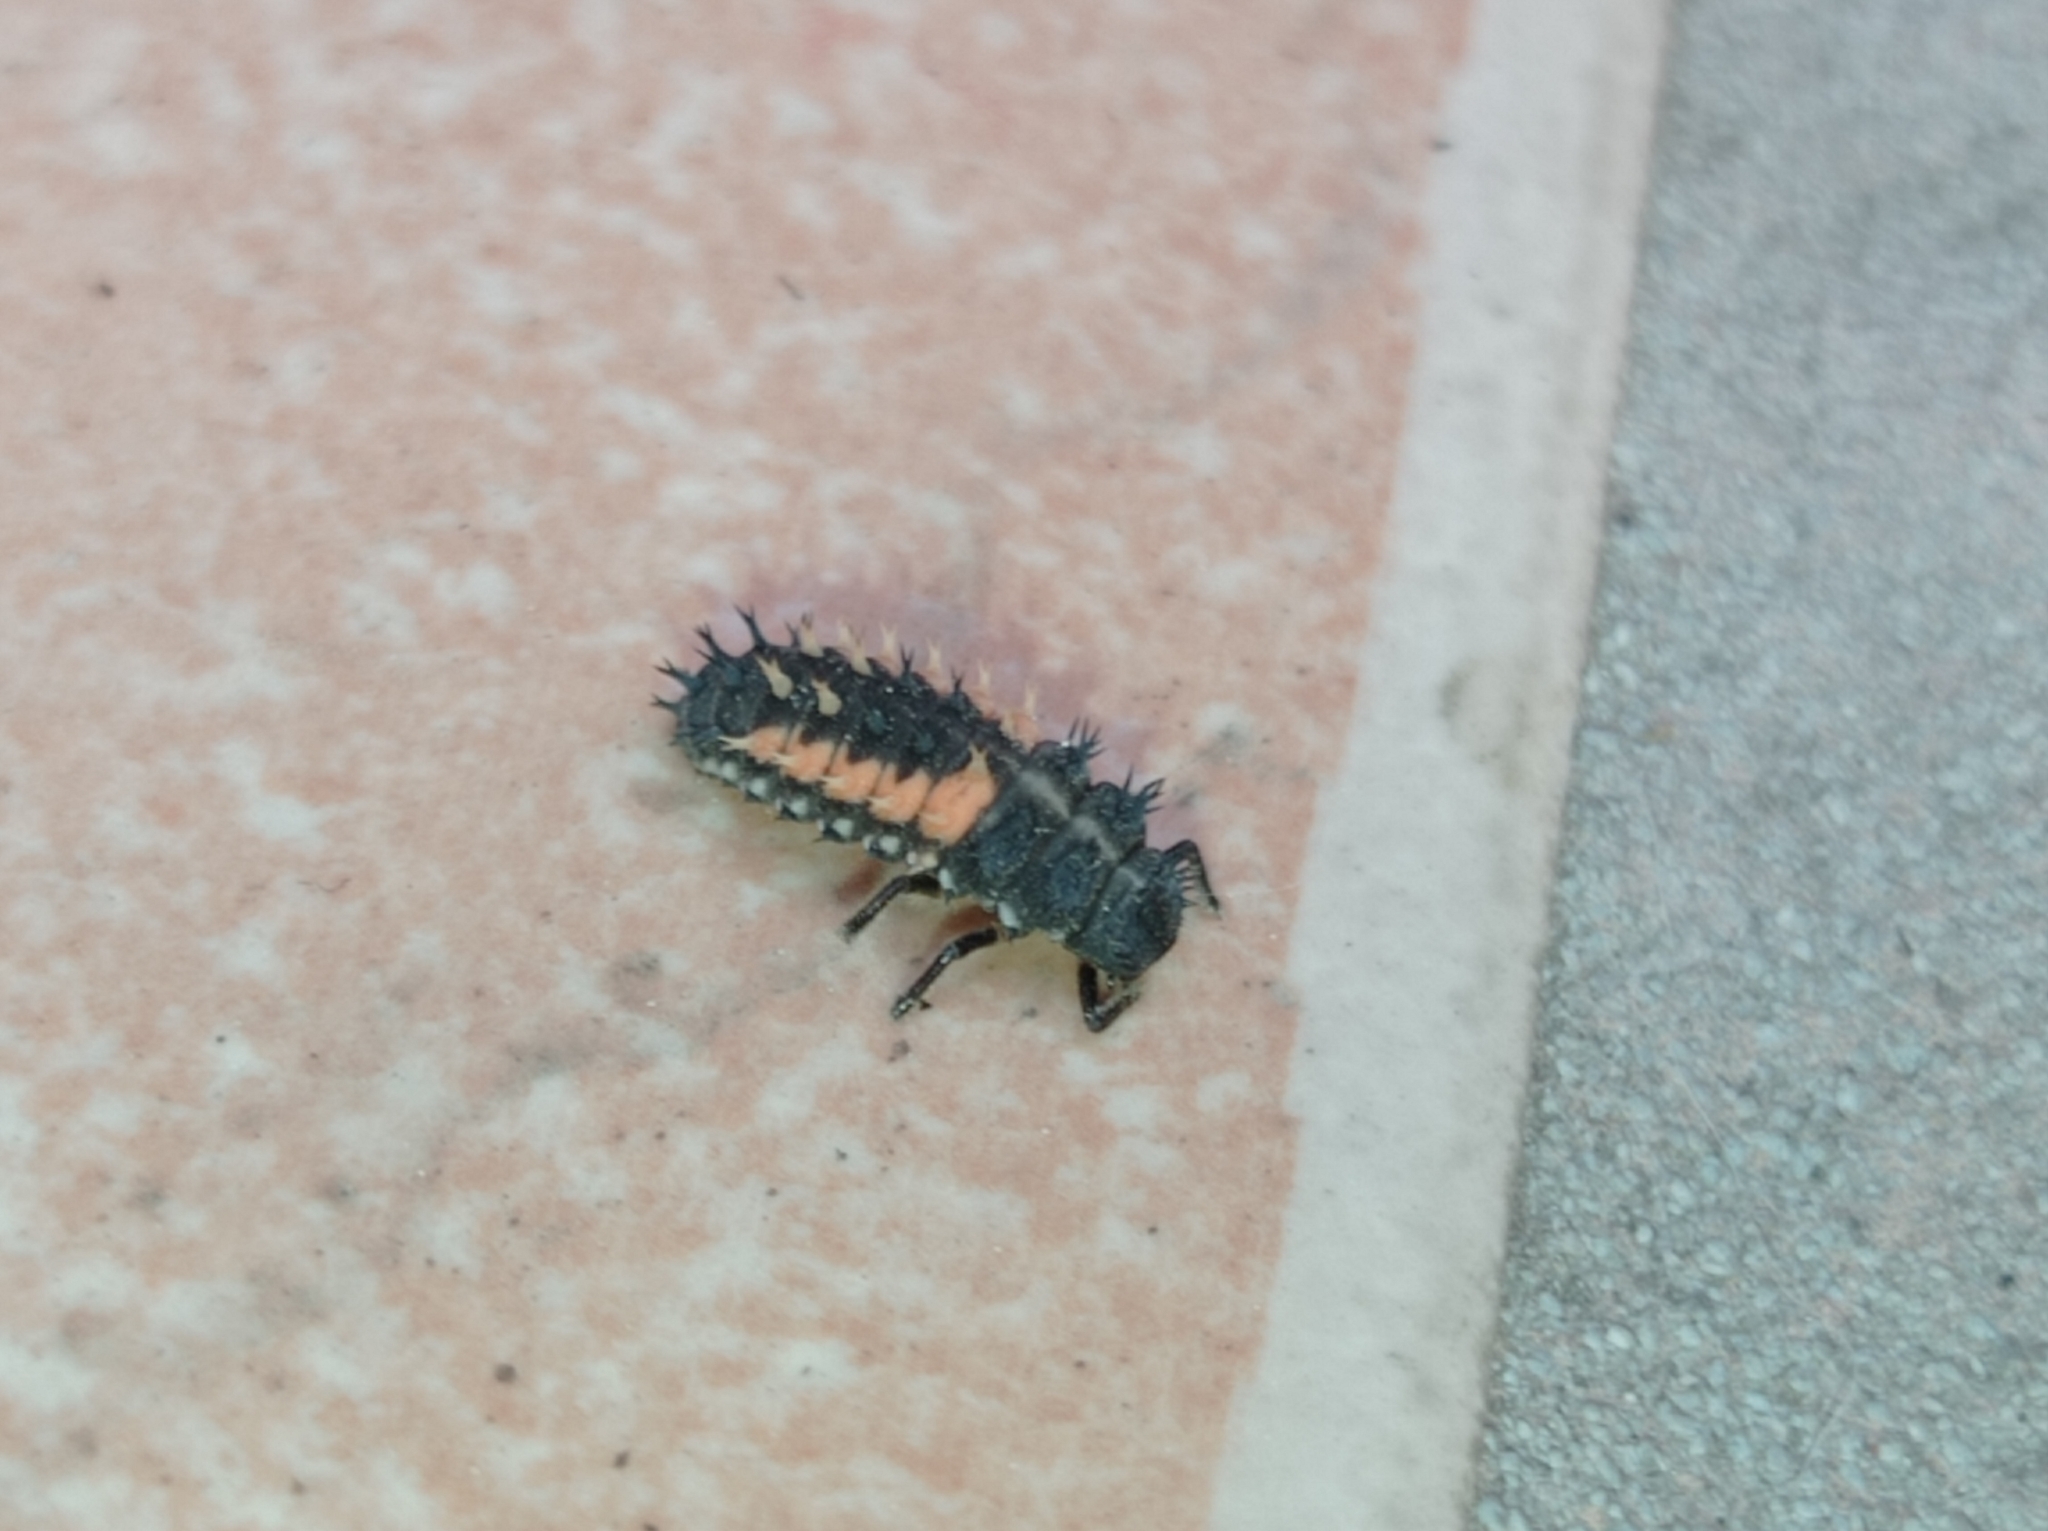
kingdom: Animalia
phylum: Arthropoda
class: Insecta
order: Coleoptera
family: Coccinellidae
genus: Harmonia
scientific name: Harmonia axyridis
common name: Harlequin ladybird
